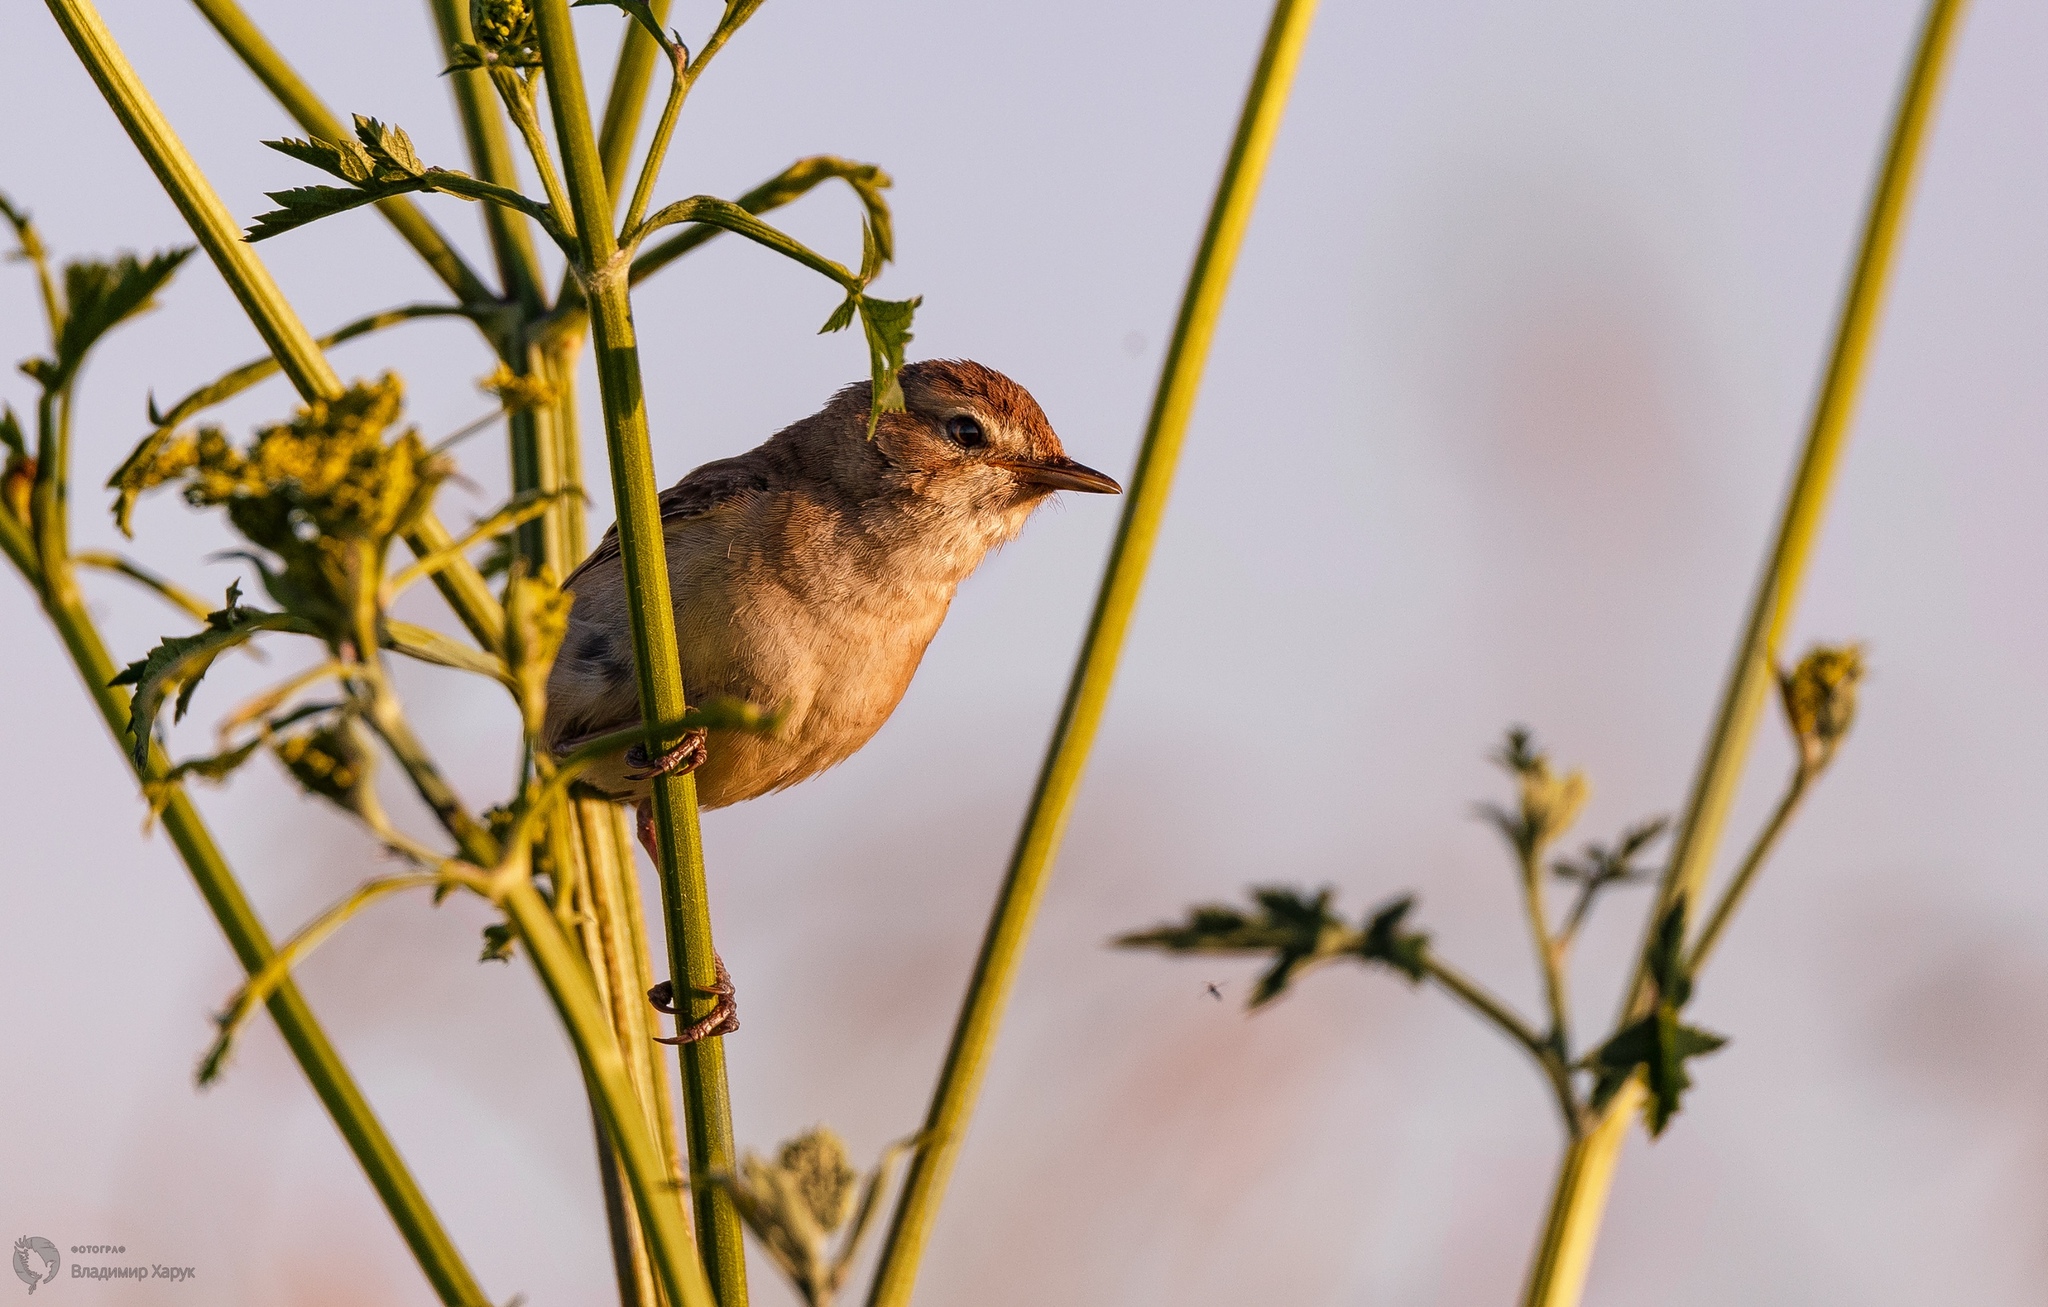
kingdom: Animalia
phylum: Chordata
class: Aves
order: Passeriformes
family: Acrocephalidae
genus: Iduna
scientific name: Iduna caligata
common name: Booted warbler
